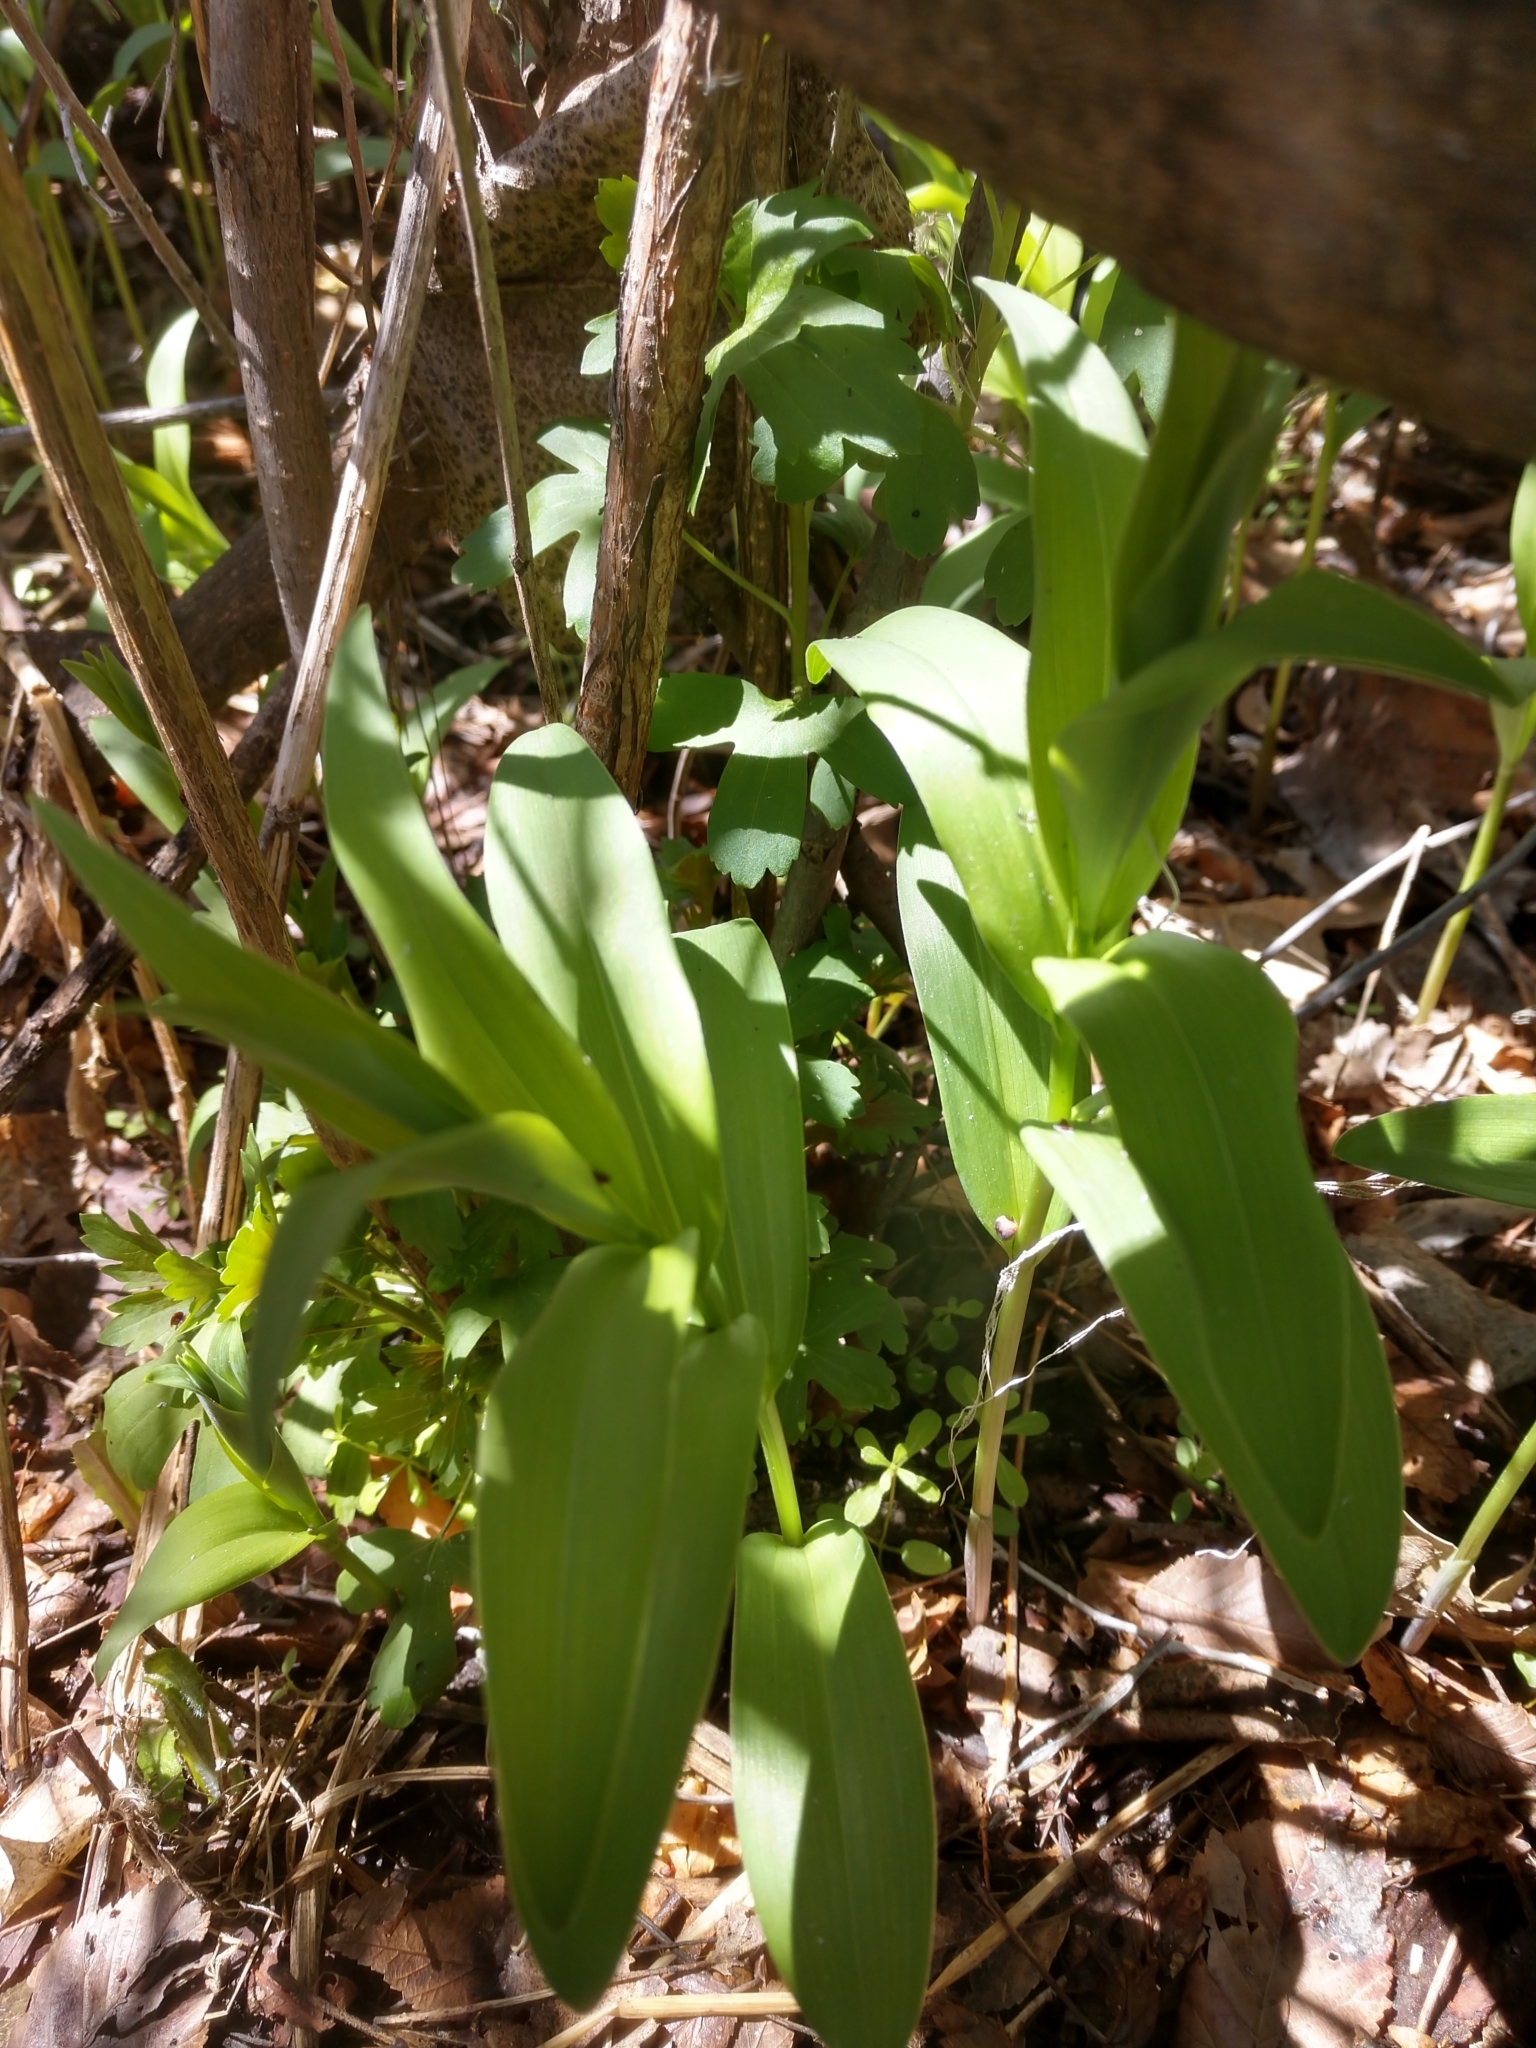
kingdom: Plantae
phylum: Tracheophyta
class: Liliopsida
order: Asparagales
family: Asparagaceae
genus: Maianthemum
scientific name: Maianthemum stellatum
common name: Little false solomon's seal
